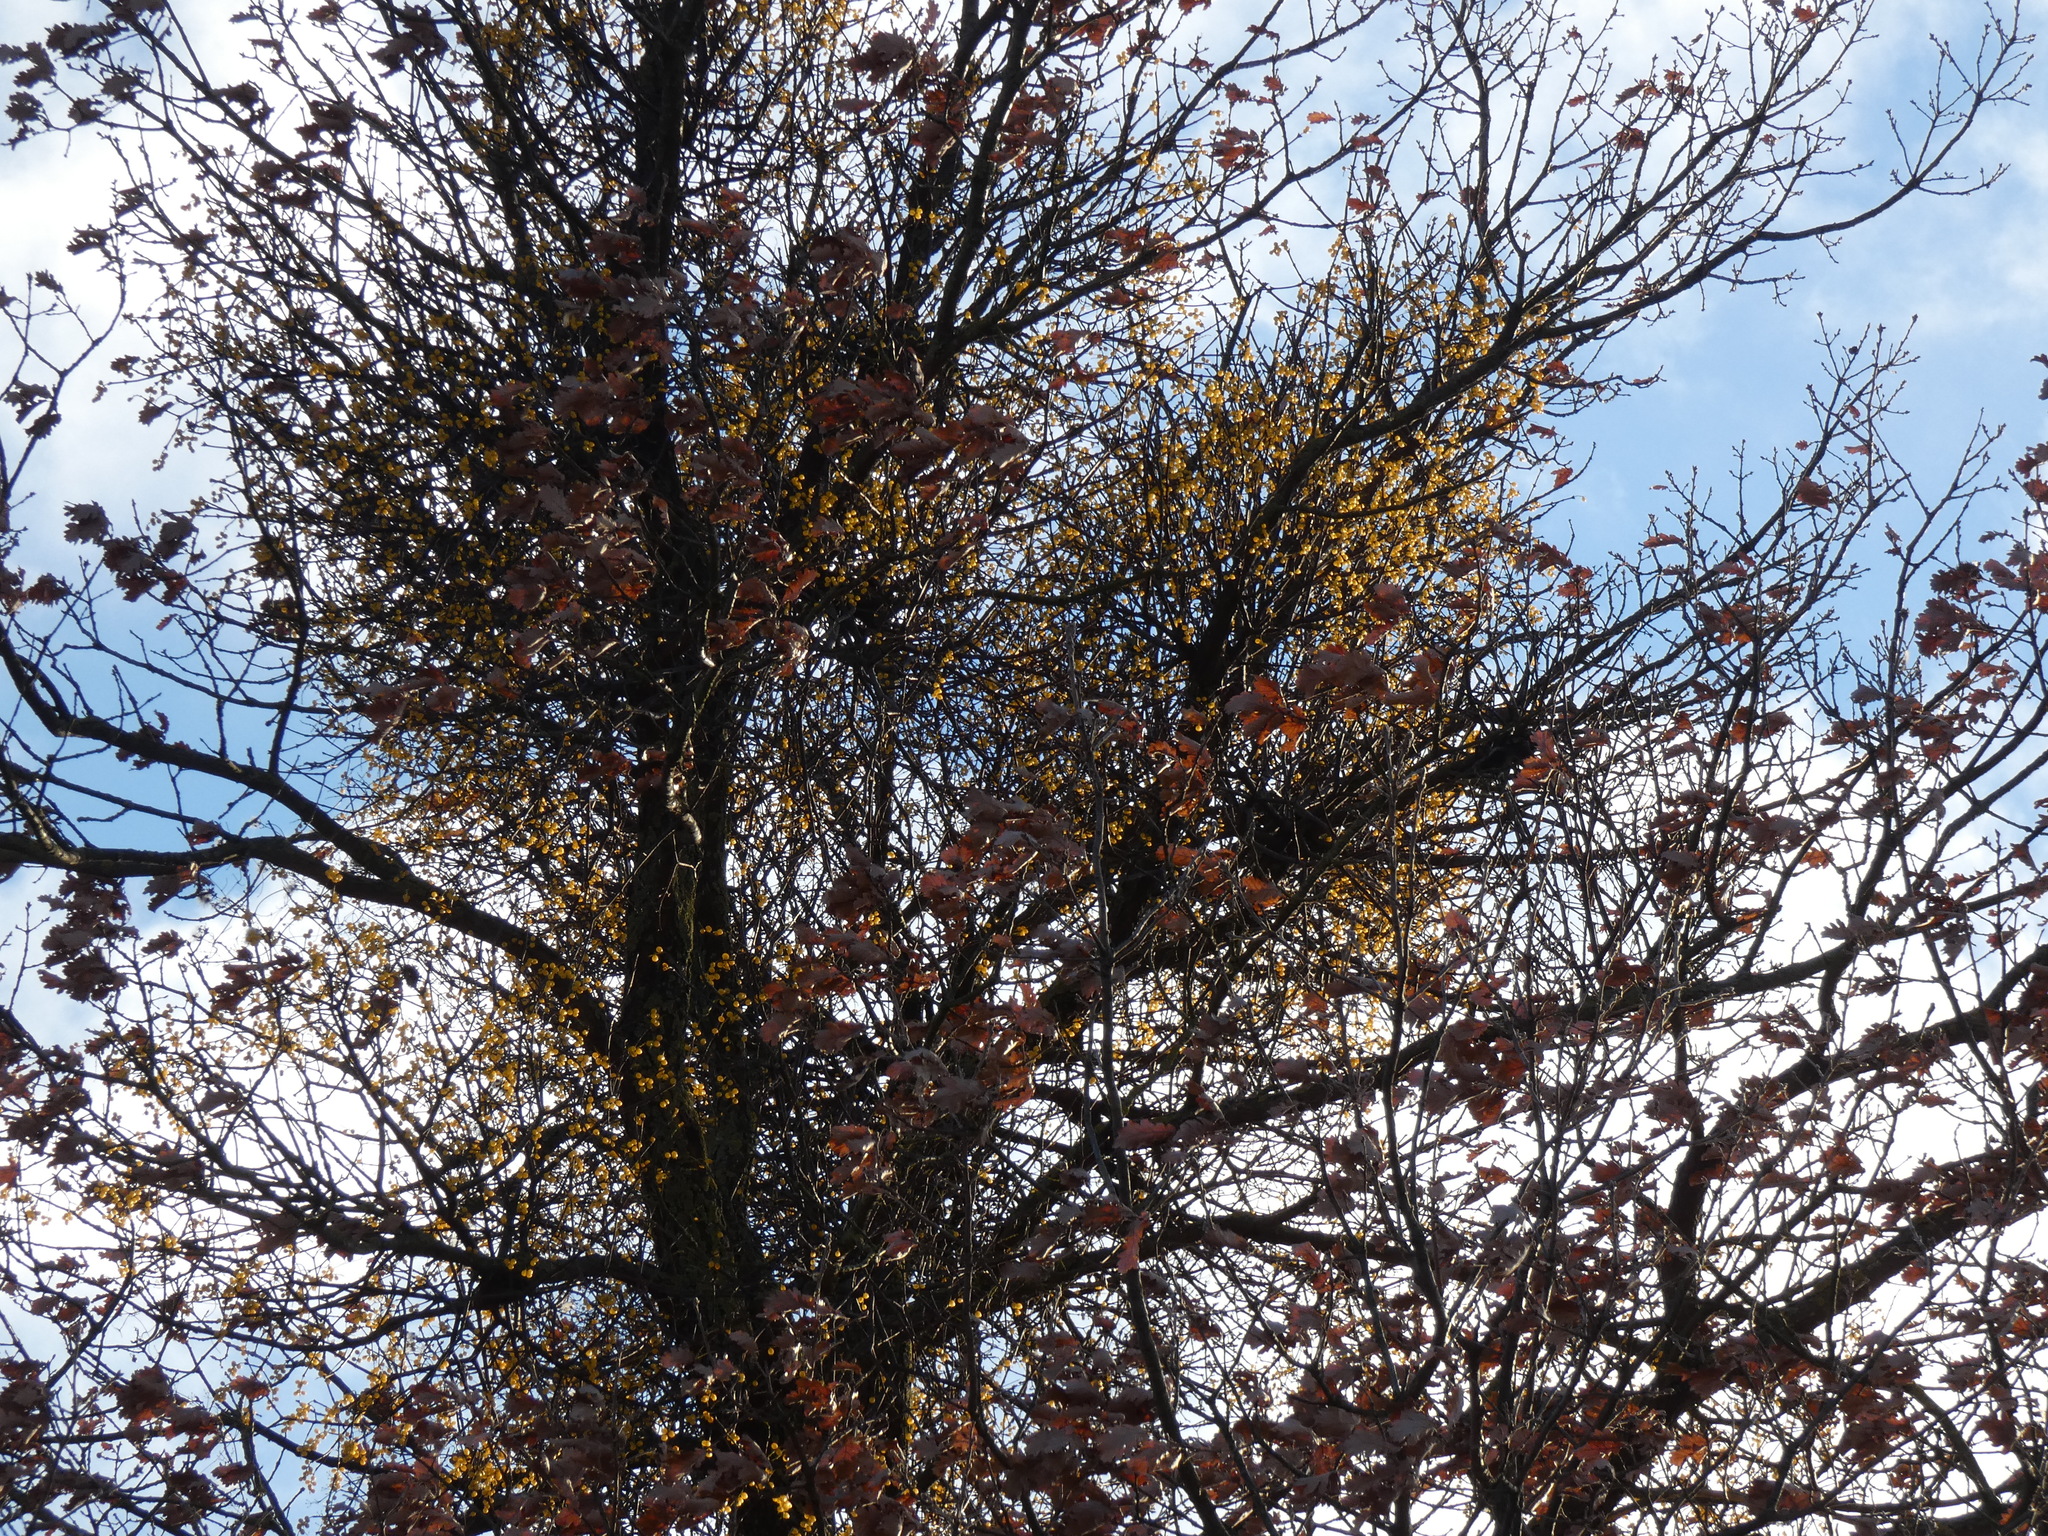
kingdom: Plantae
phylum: Tracheophyta
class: Magnoliopsida
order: Santalales
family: Loranthaceae
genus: Loranthus
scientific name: Loranthus europaeus
